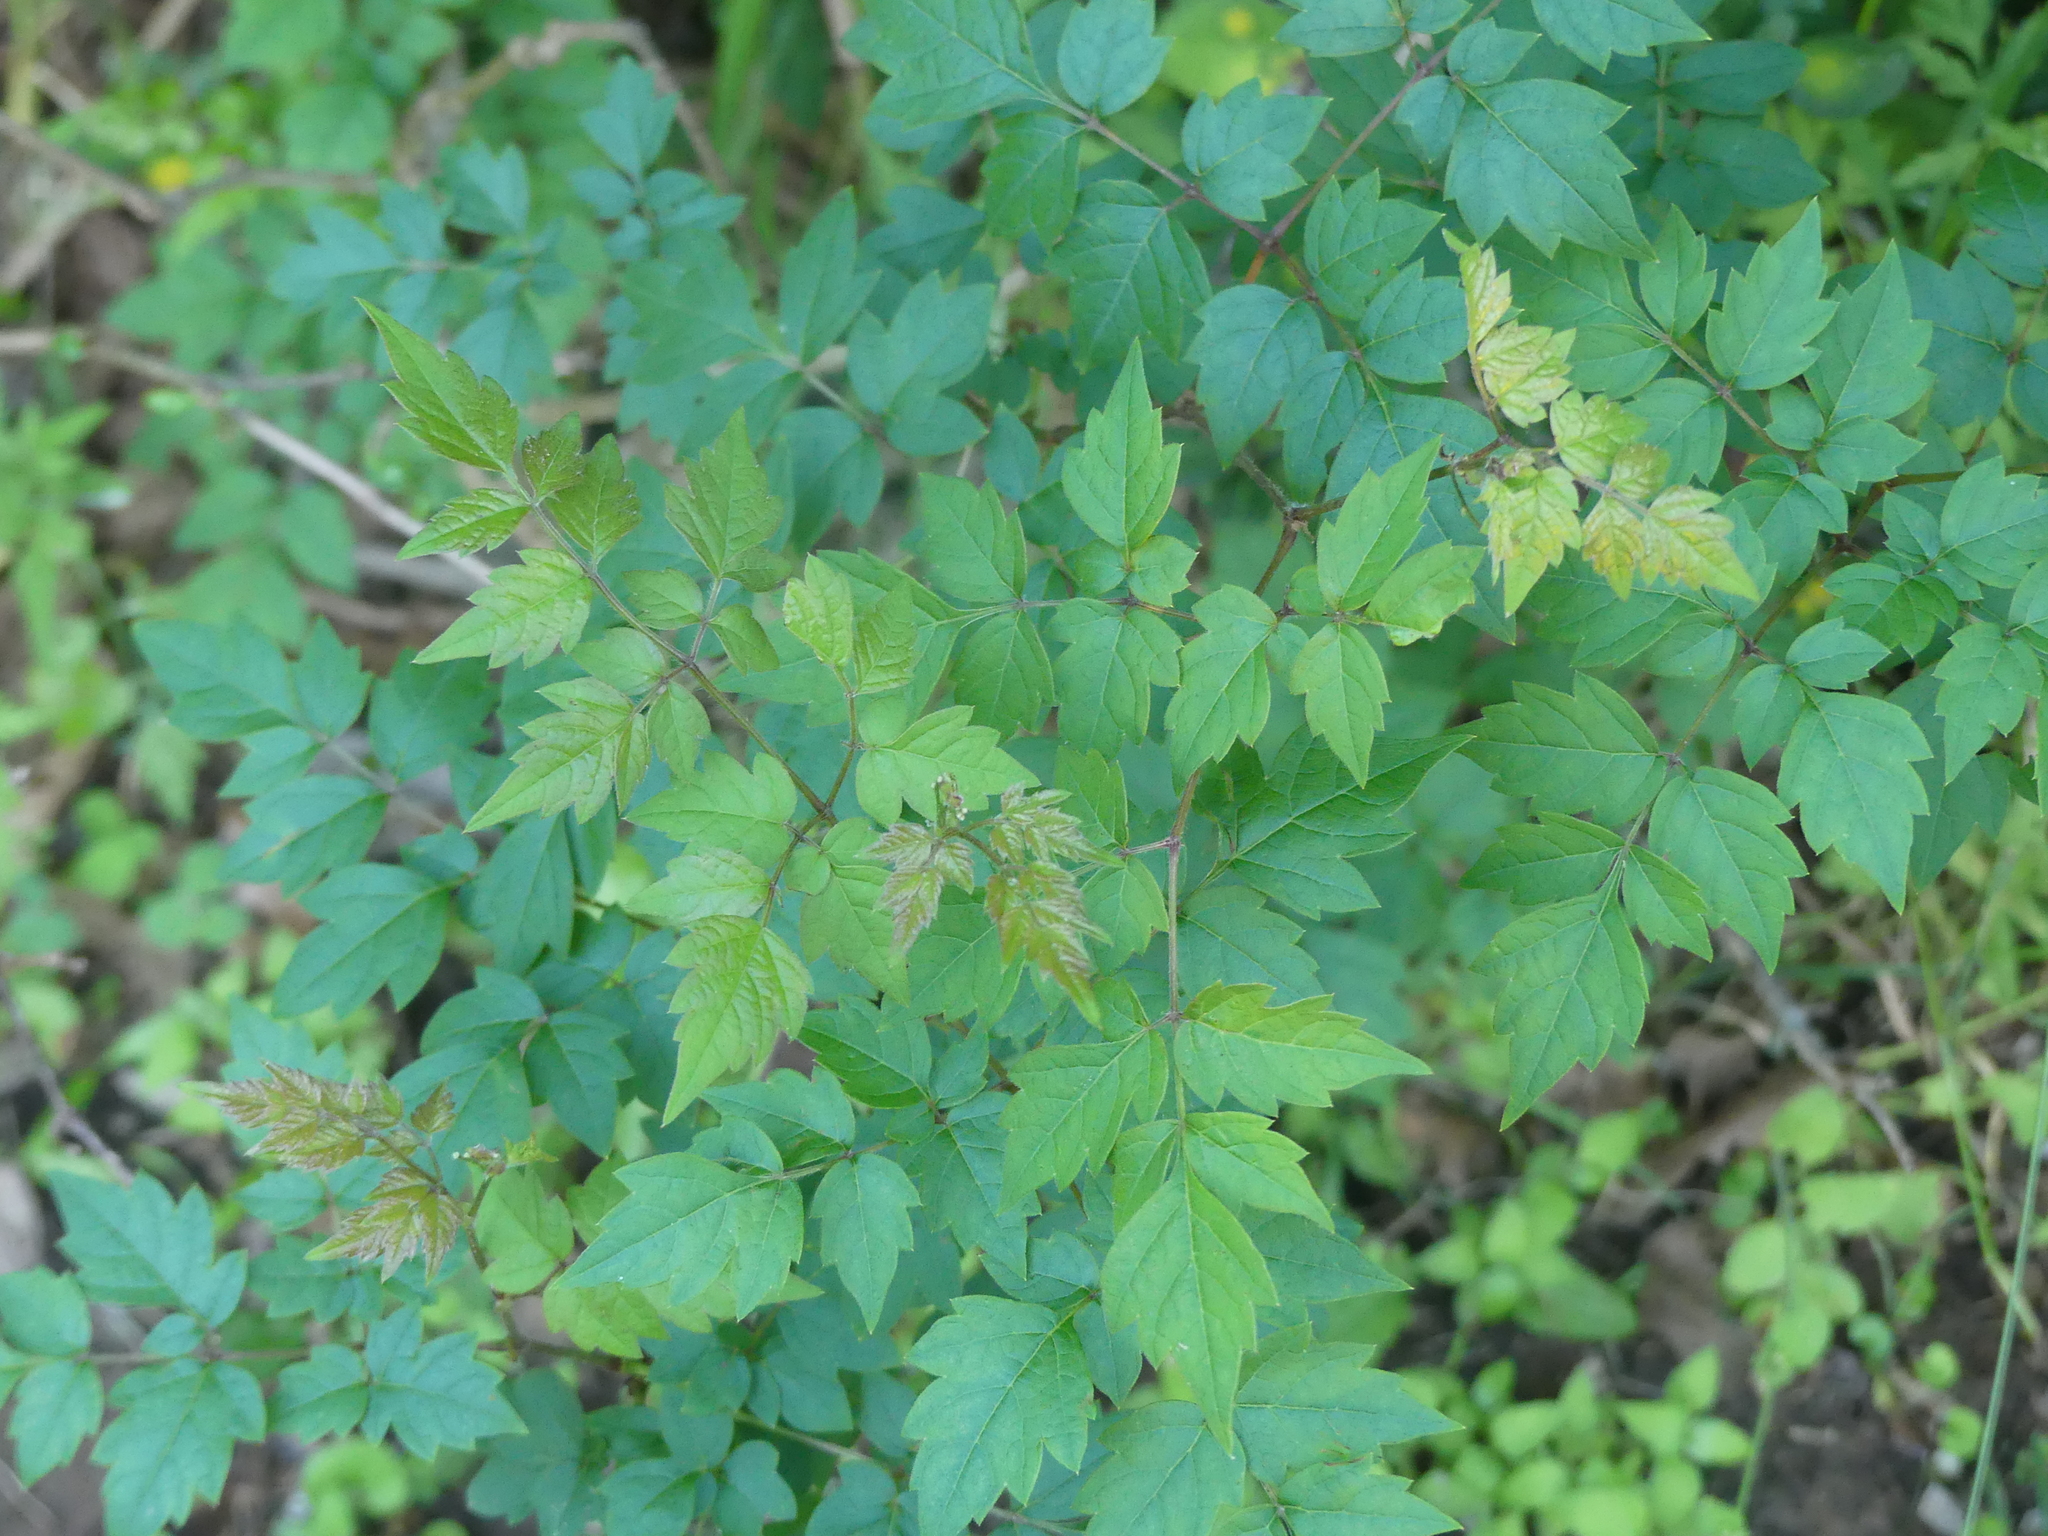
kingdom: Plantae
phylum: Tracheophyta
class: Magnoliopsida
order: Vitales
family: Vitaceae
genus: Nekemias
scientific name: Nekemias arborea
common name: Peppervine
